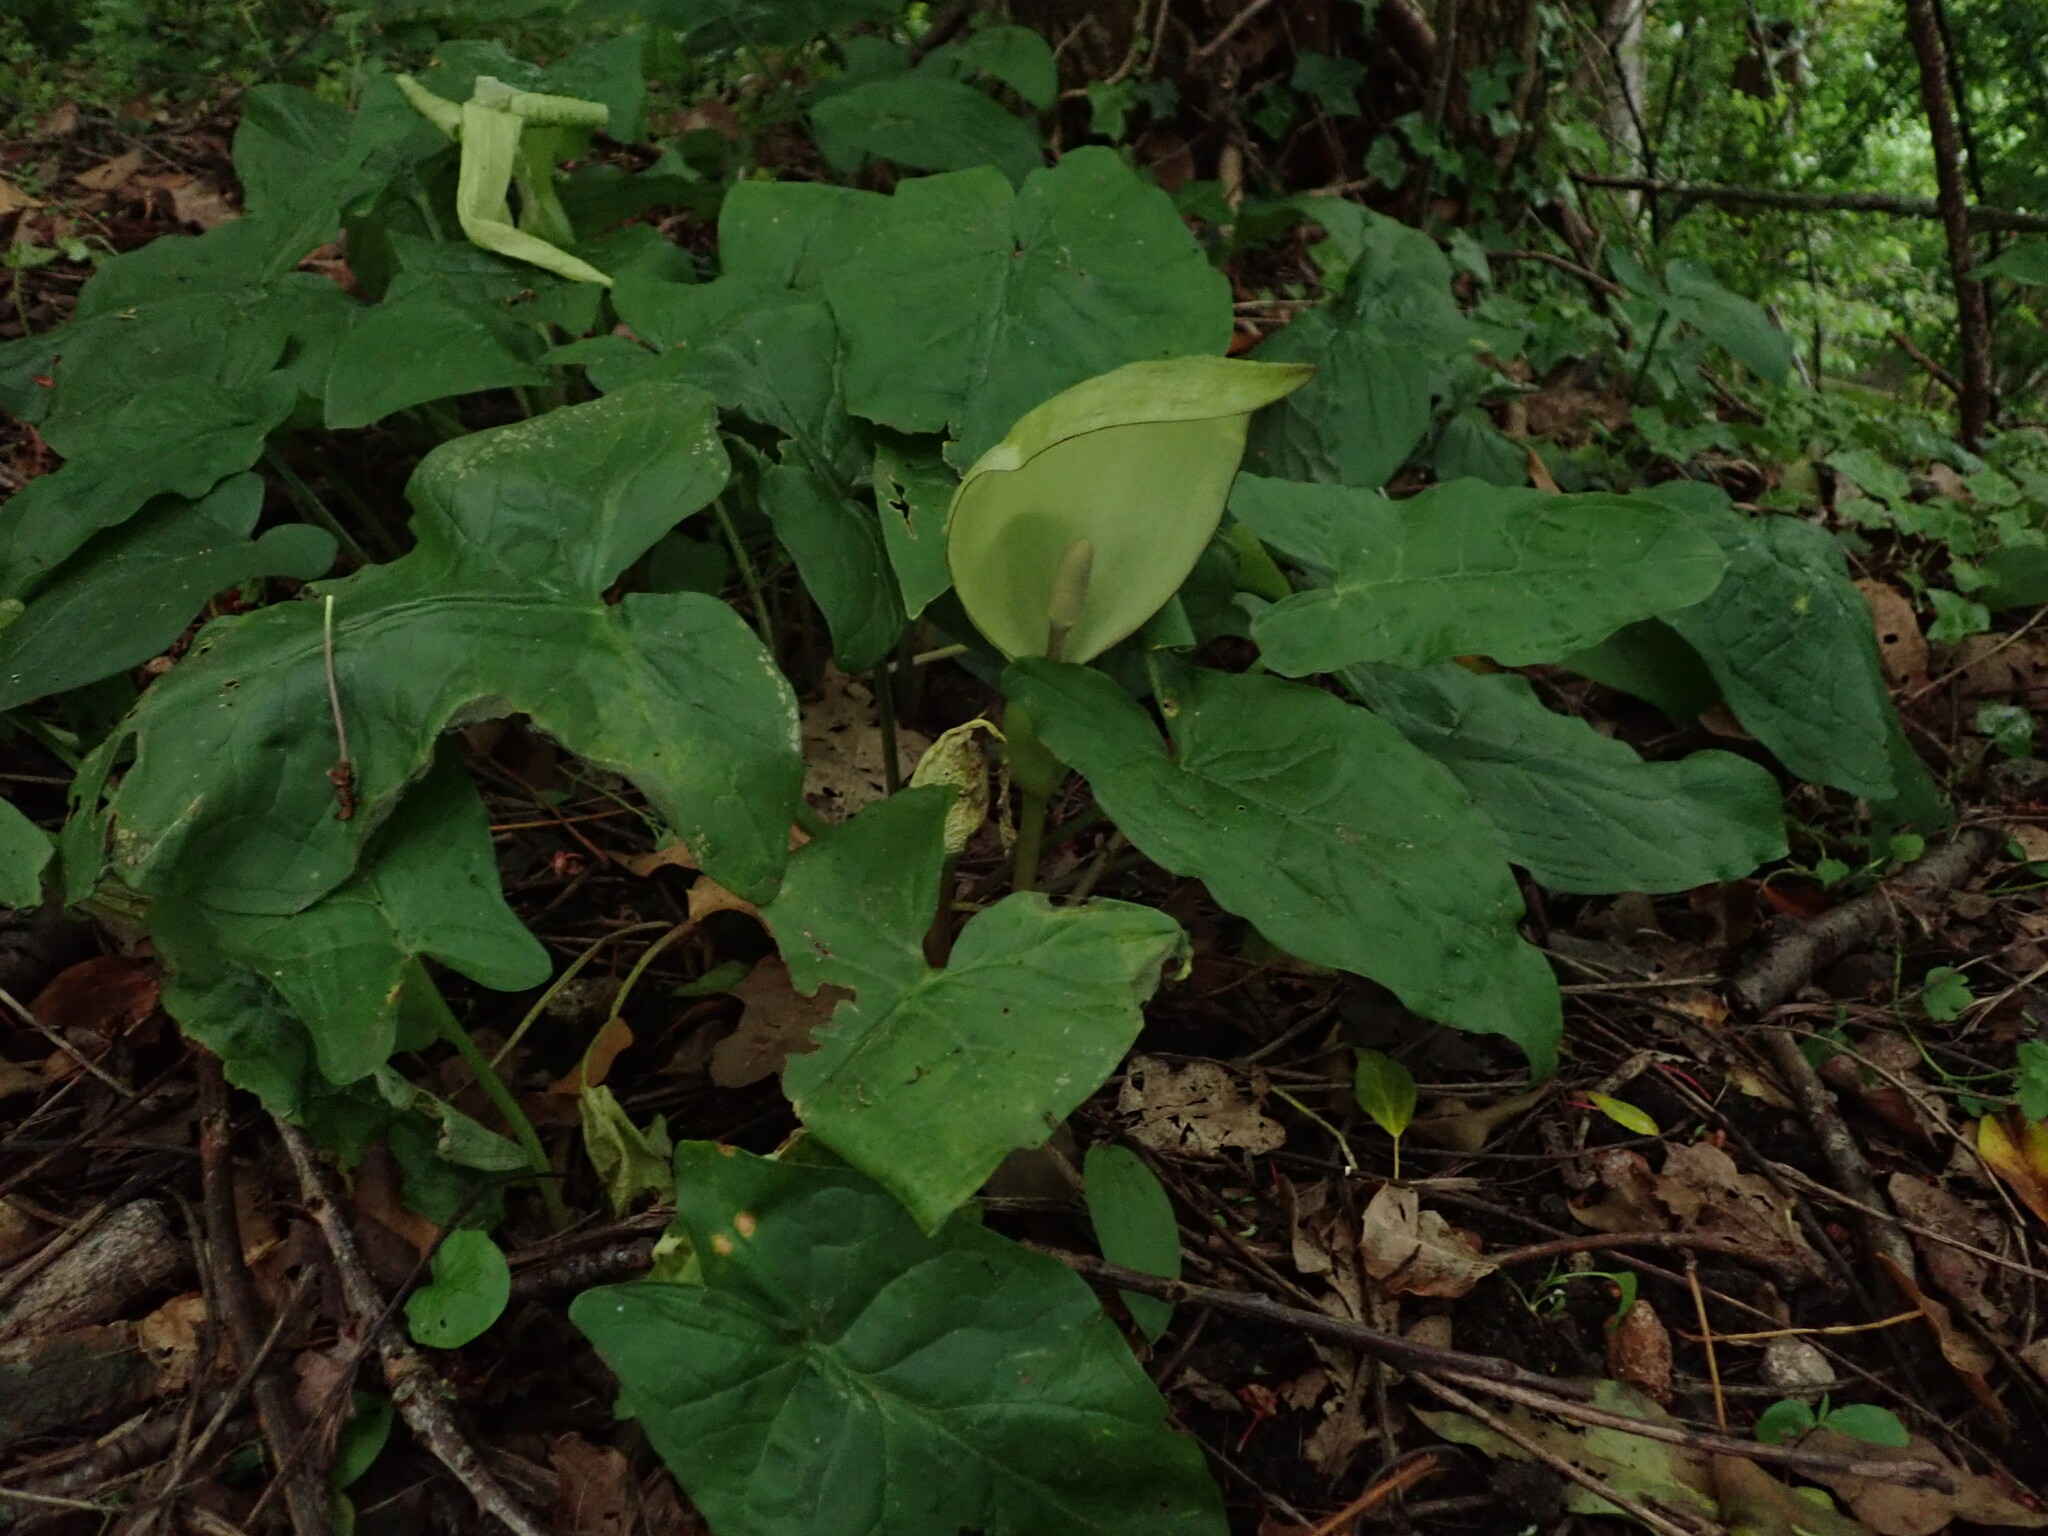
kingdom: Plantae
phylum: Tracheophyta
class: Liliopsida
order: Alismatales
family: Araceae
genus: Arum
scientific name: Arum maculatum
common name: Lords-and-ladies
